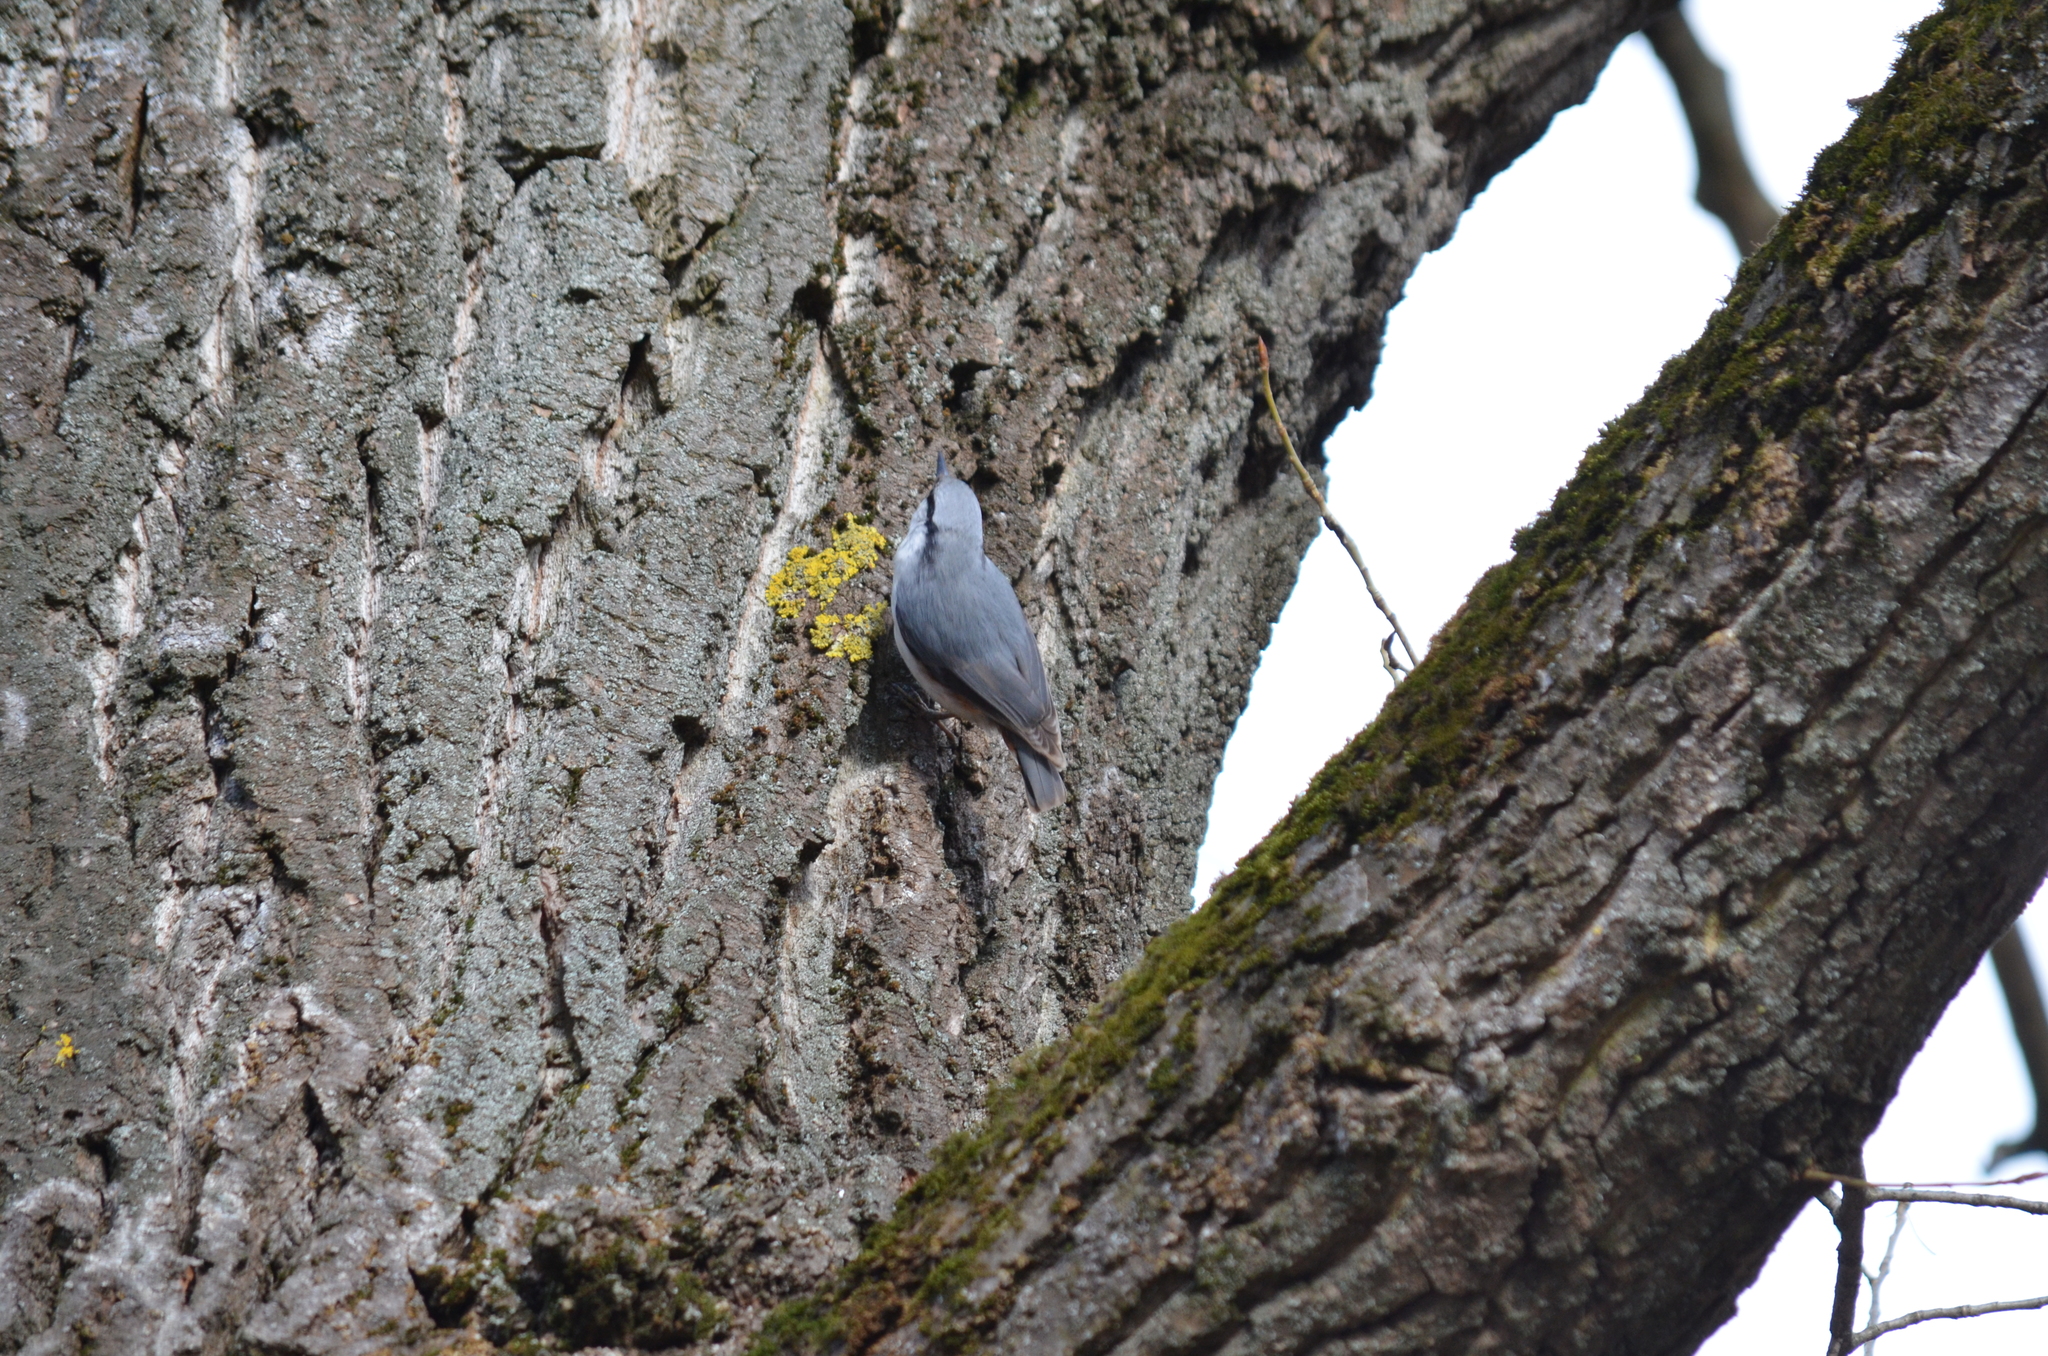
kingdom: Animalia
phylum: Chordata
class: Aves
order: Passeriformes
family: Sittidae
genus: Sitta
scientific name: Sitta europaea
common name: Eurasian nuthatch
